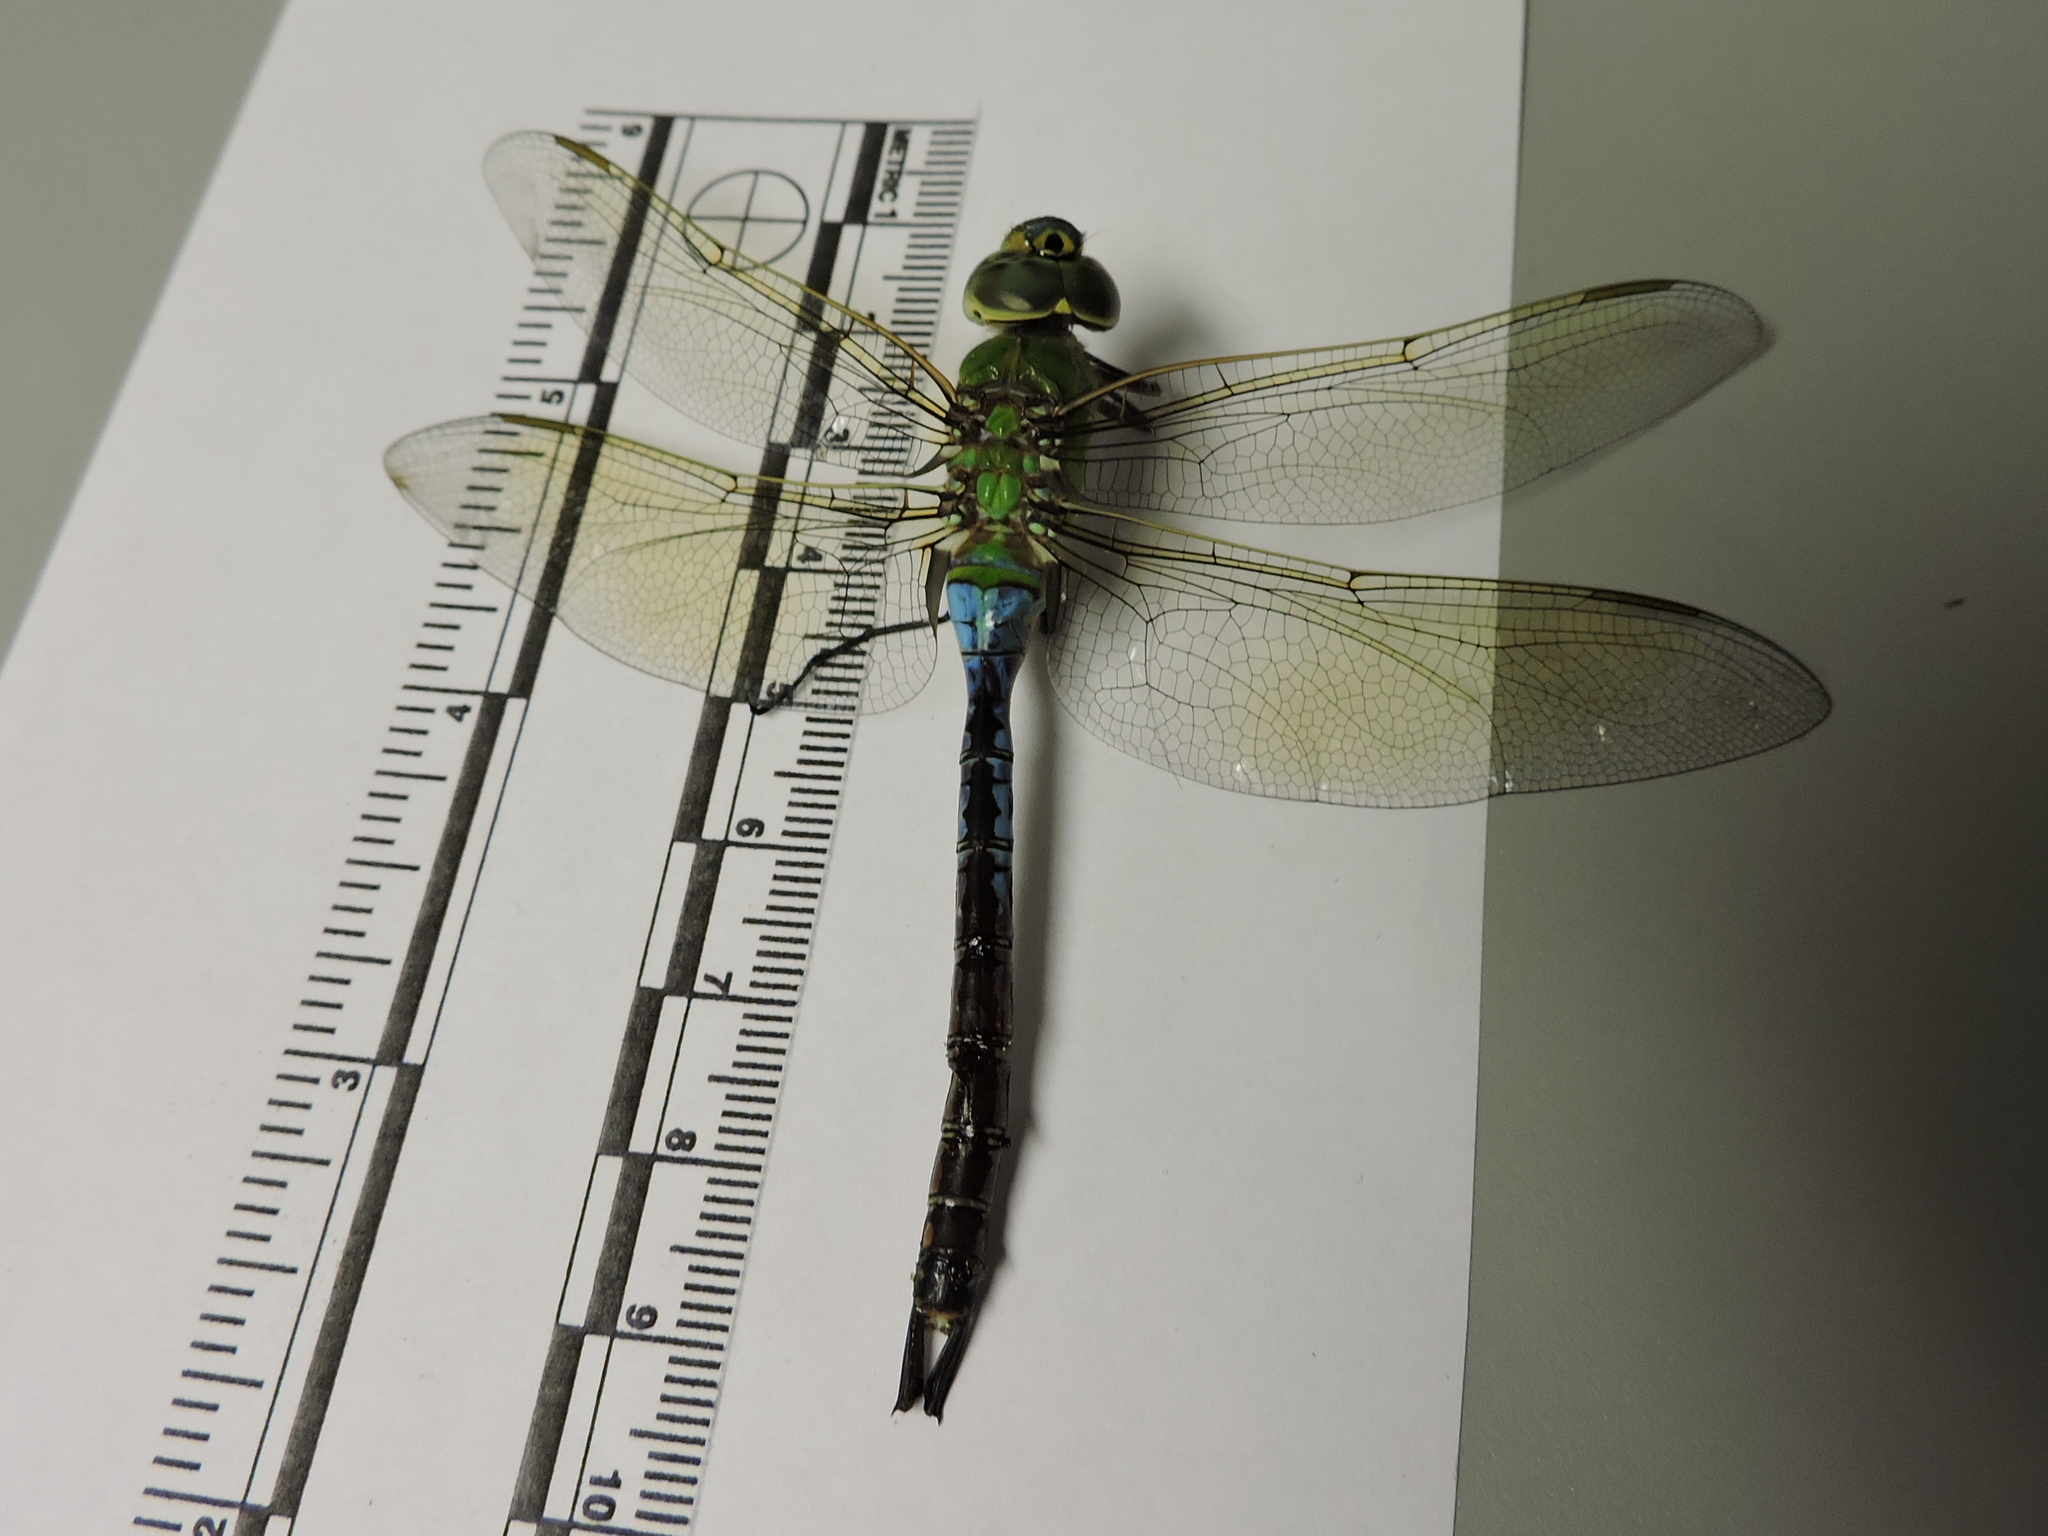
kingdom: Animalia
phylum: Arthropoda
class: Insecta
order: Odonata
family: Aeshnidae
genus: Anax
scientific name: Anax junius
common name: Common green darner
